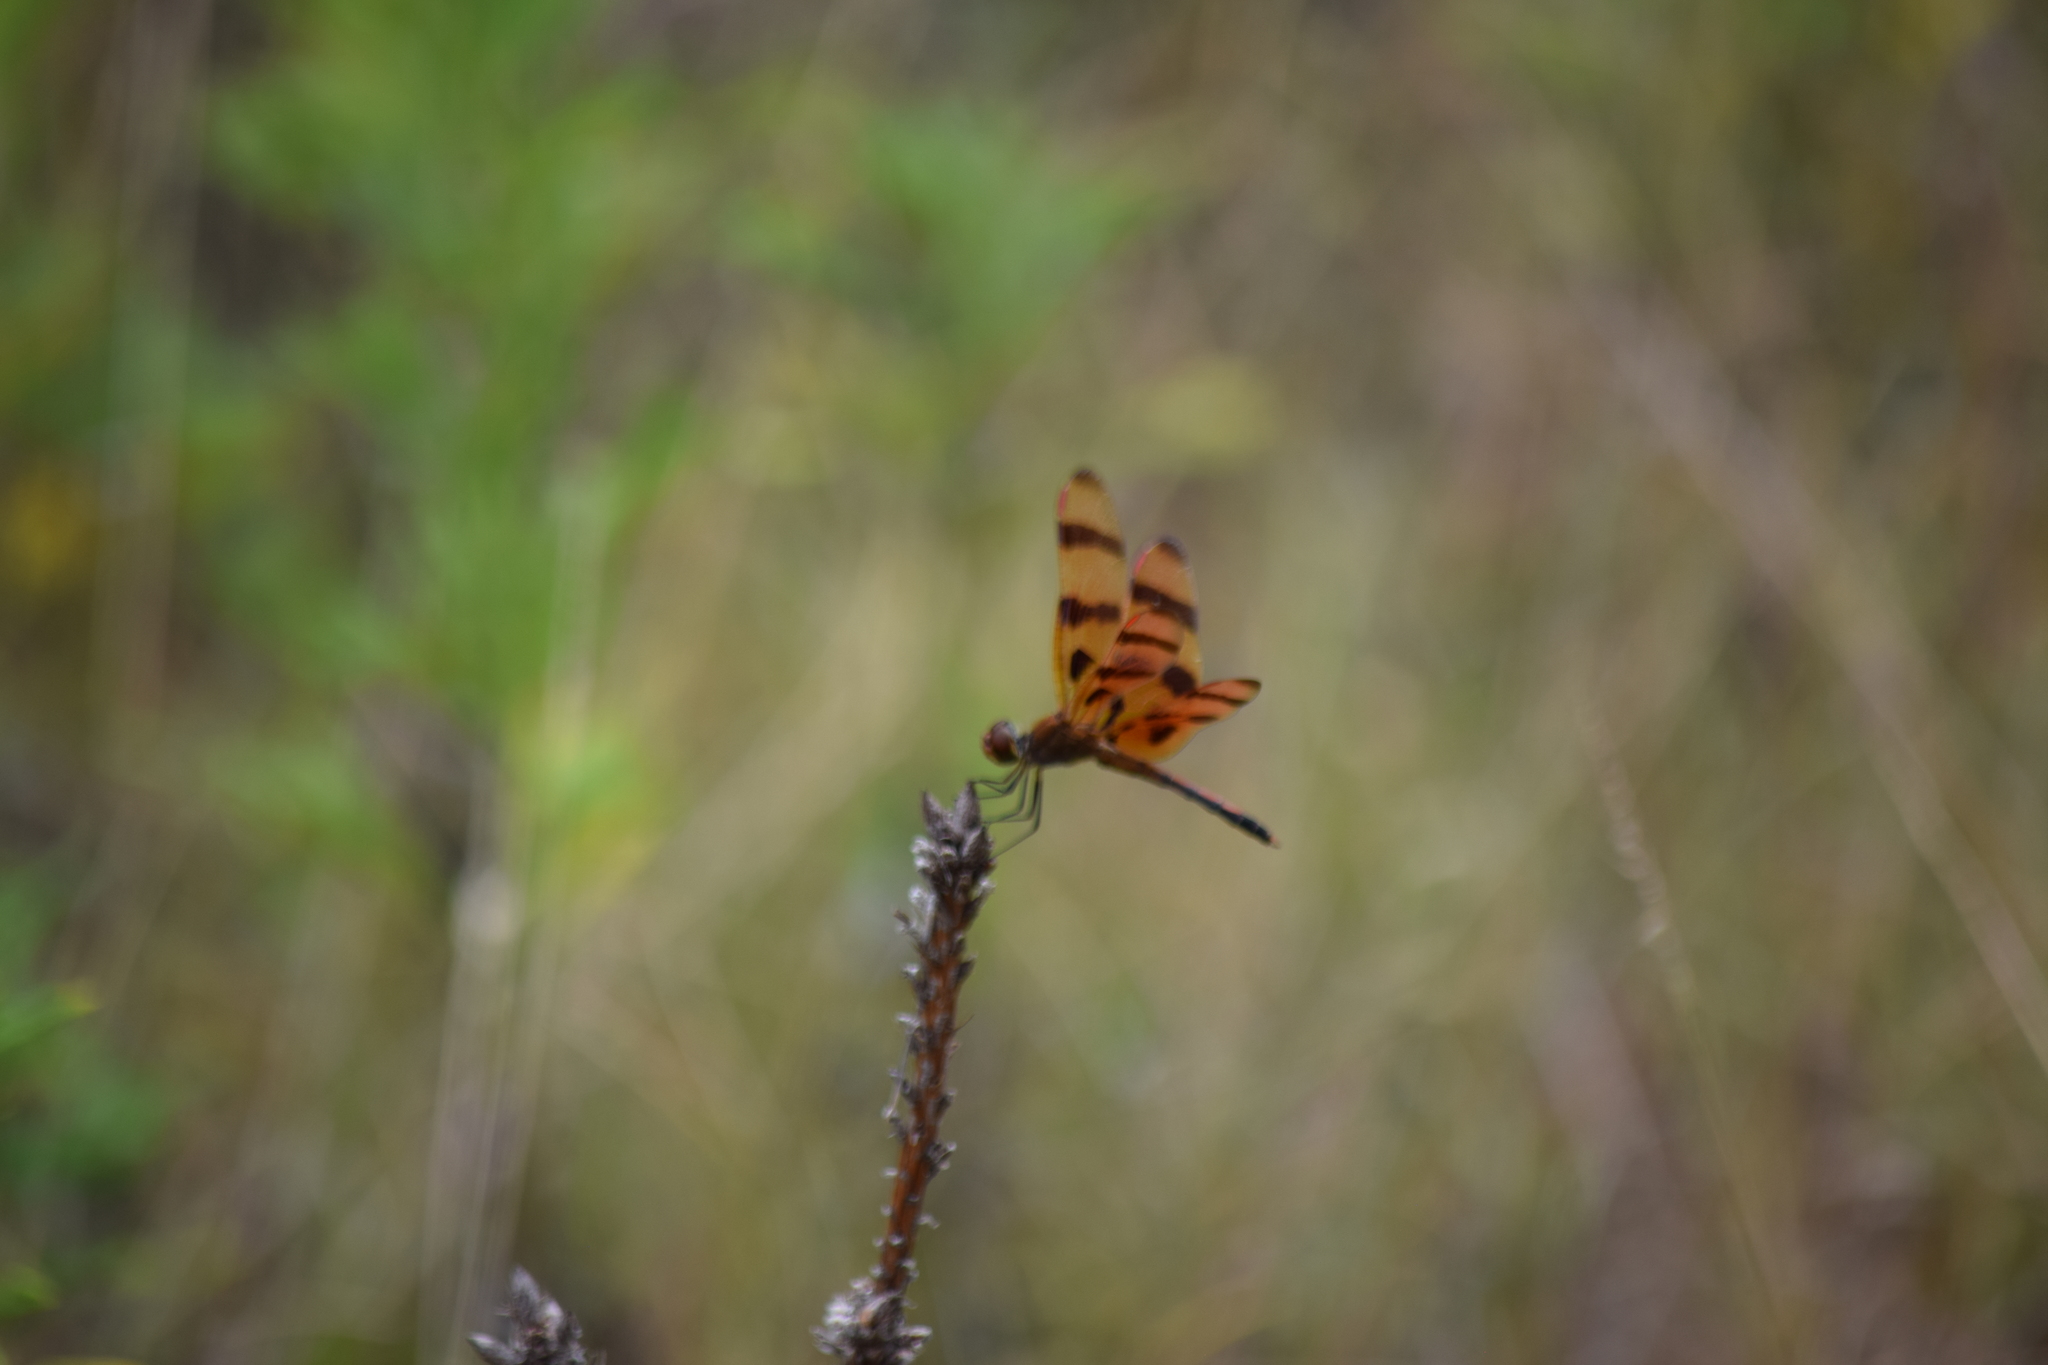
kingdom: Animalia
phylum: Arthropoda
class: Insecta
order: Odonata
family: Libellulidae
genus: Celithemis
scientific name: Celithemis eponina
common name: Halloween pennant
